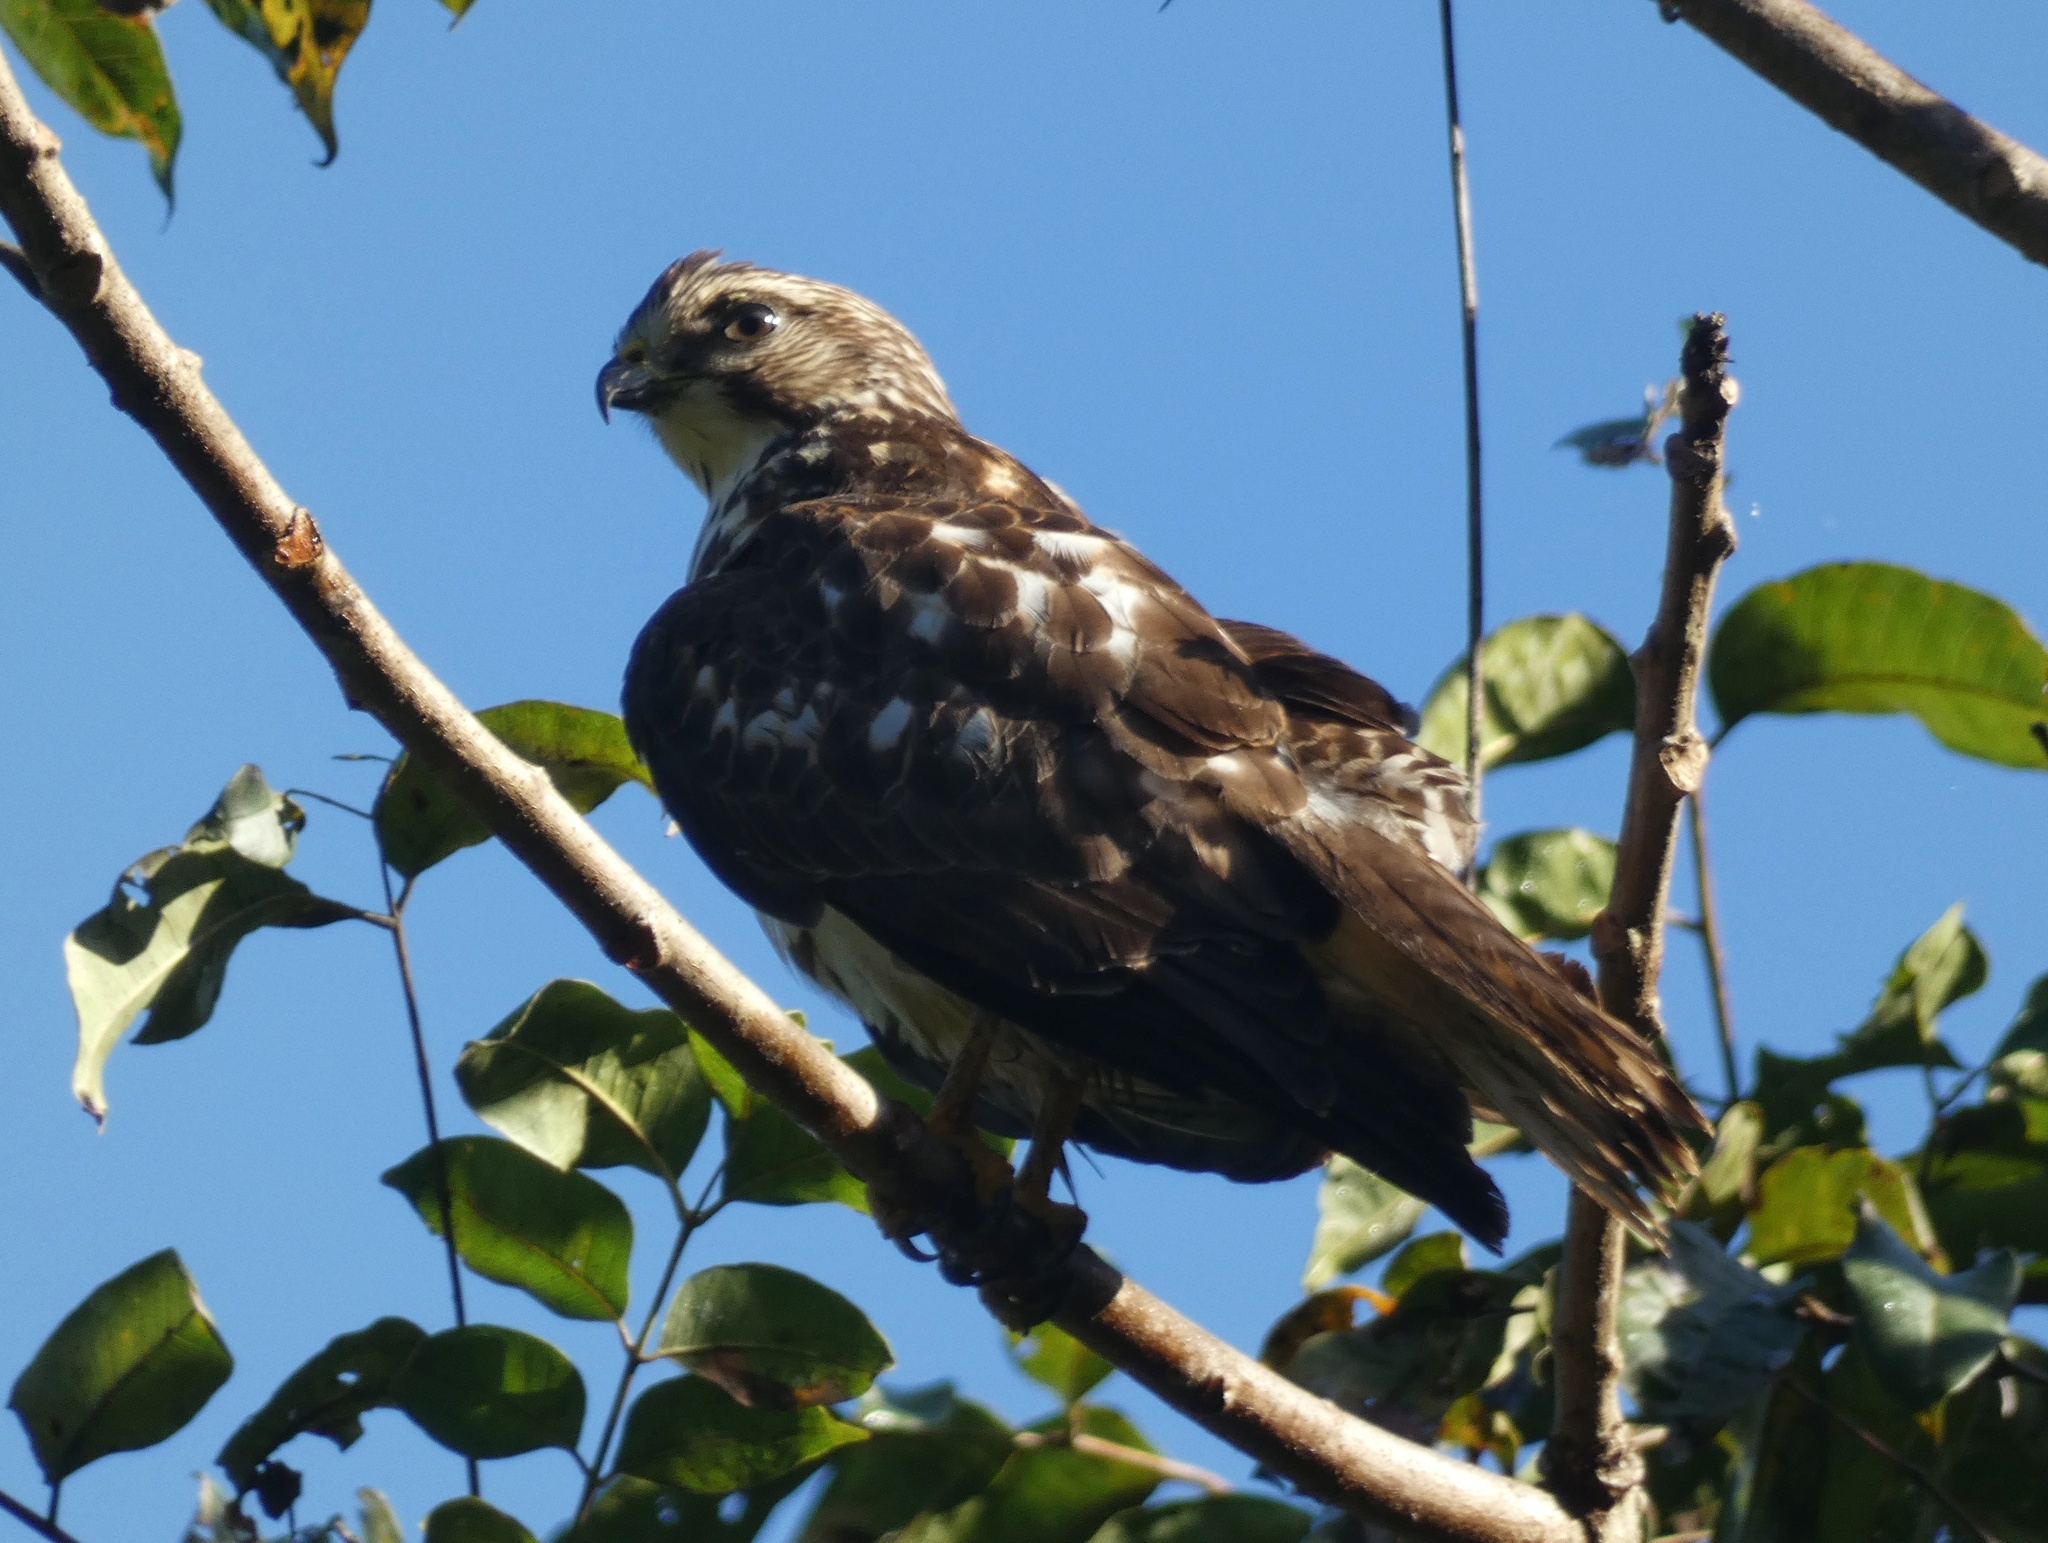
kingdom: Animalia
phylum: Chordata
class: Aves
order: Accipitriformes
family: Accipitridae
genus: Buteo
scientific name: Buteo platypterus
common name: Broad-winged hawk
